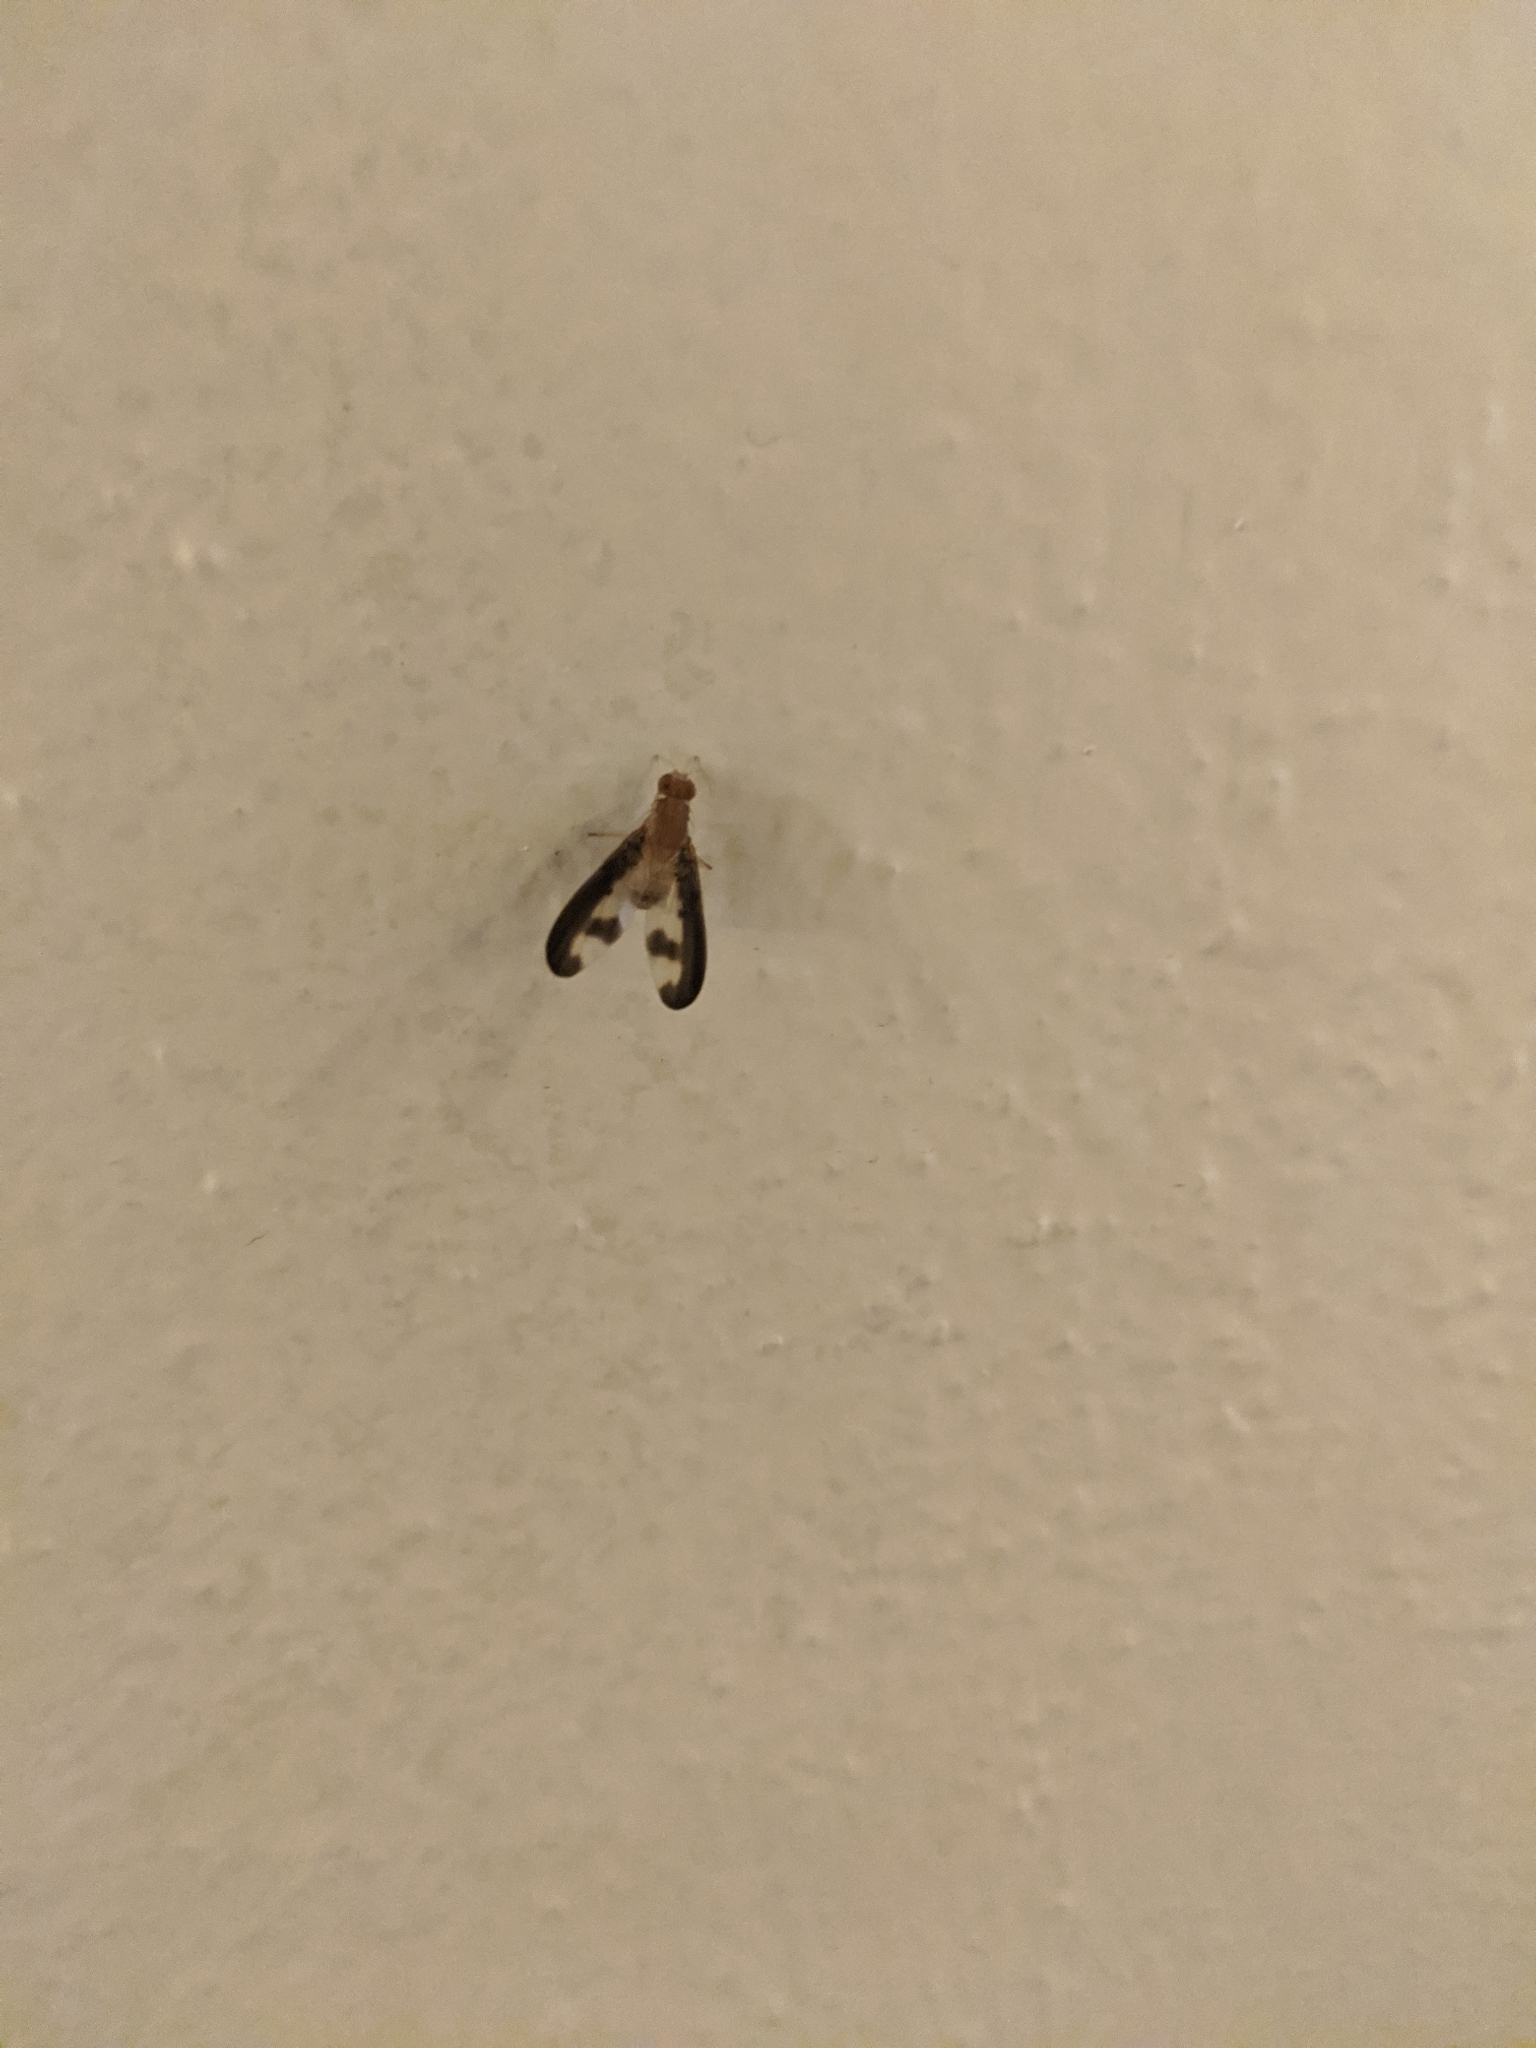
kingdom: Animalia
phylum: Arthropoda
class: Insecta
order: Diptera
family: Pallopteridae
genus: Toxonevra
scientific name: Toxonevra superba
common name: Antlered flutter fly
